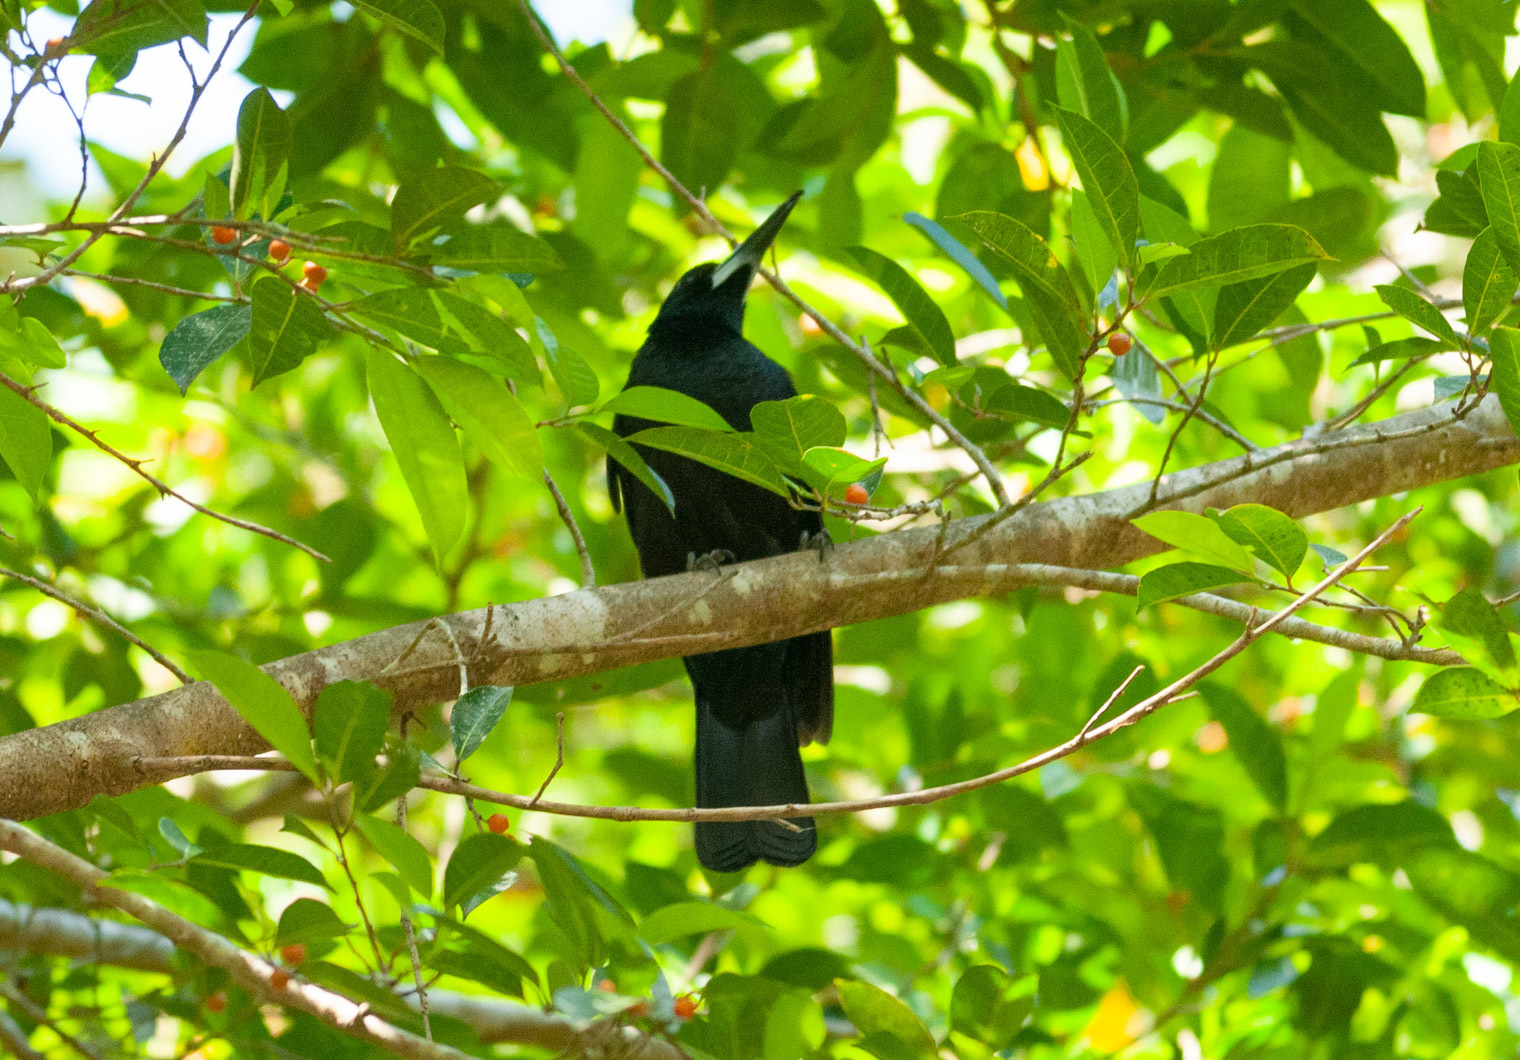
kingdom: Animalia
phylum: Chordata
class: Aves
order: Passeriformes
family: Artamidae
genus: Melloria
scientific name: Melloria quoyi
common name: Black butcherbird
